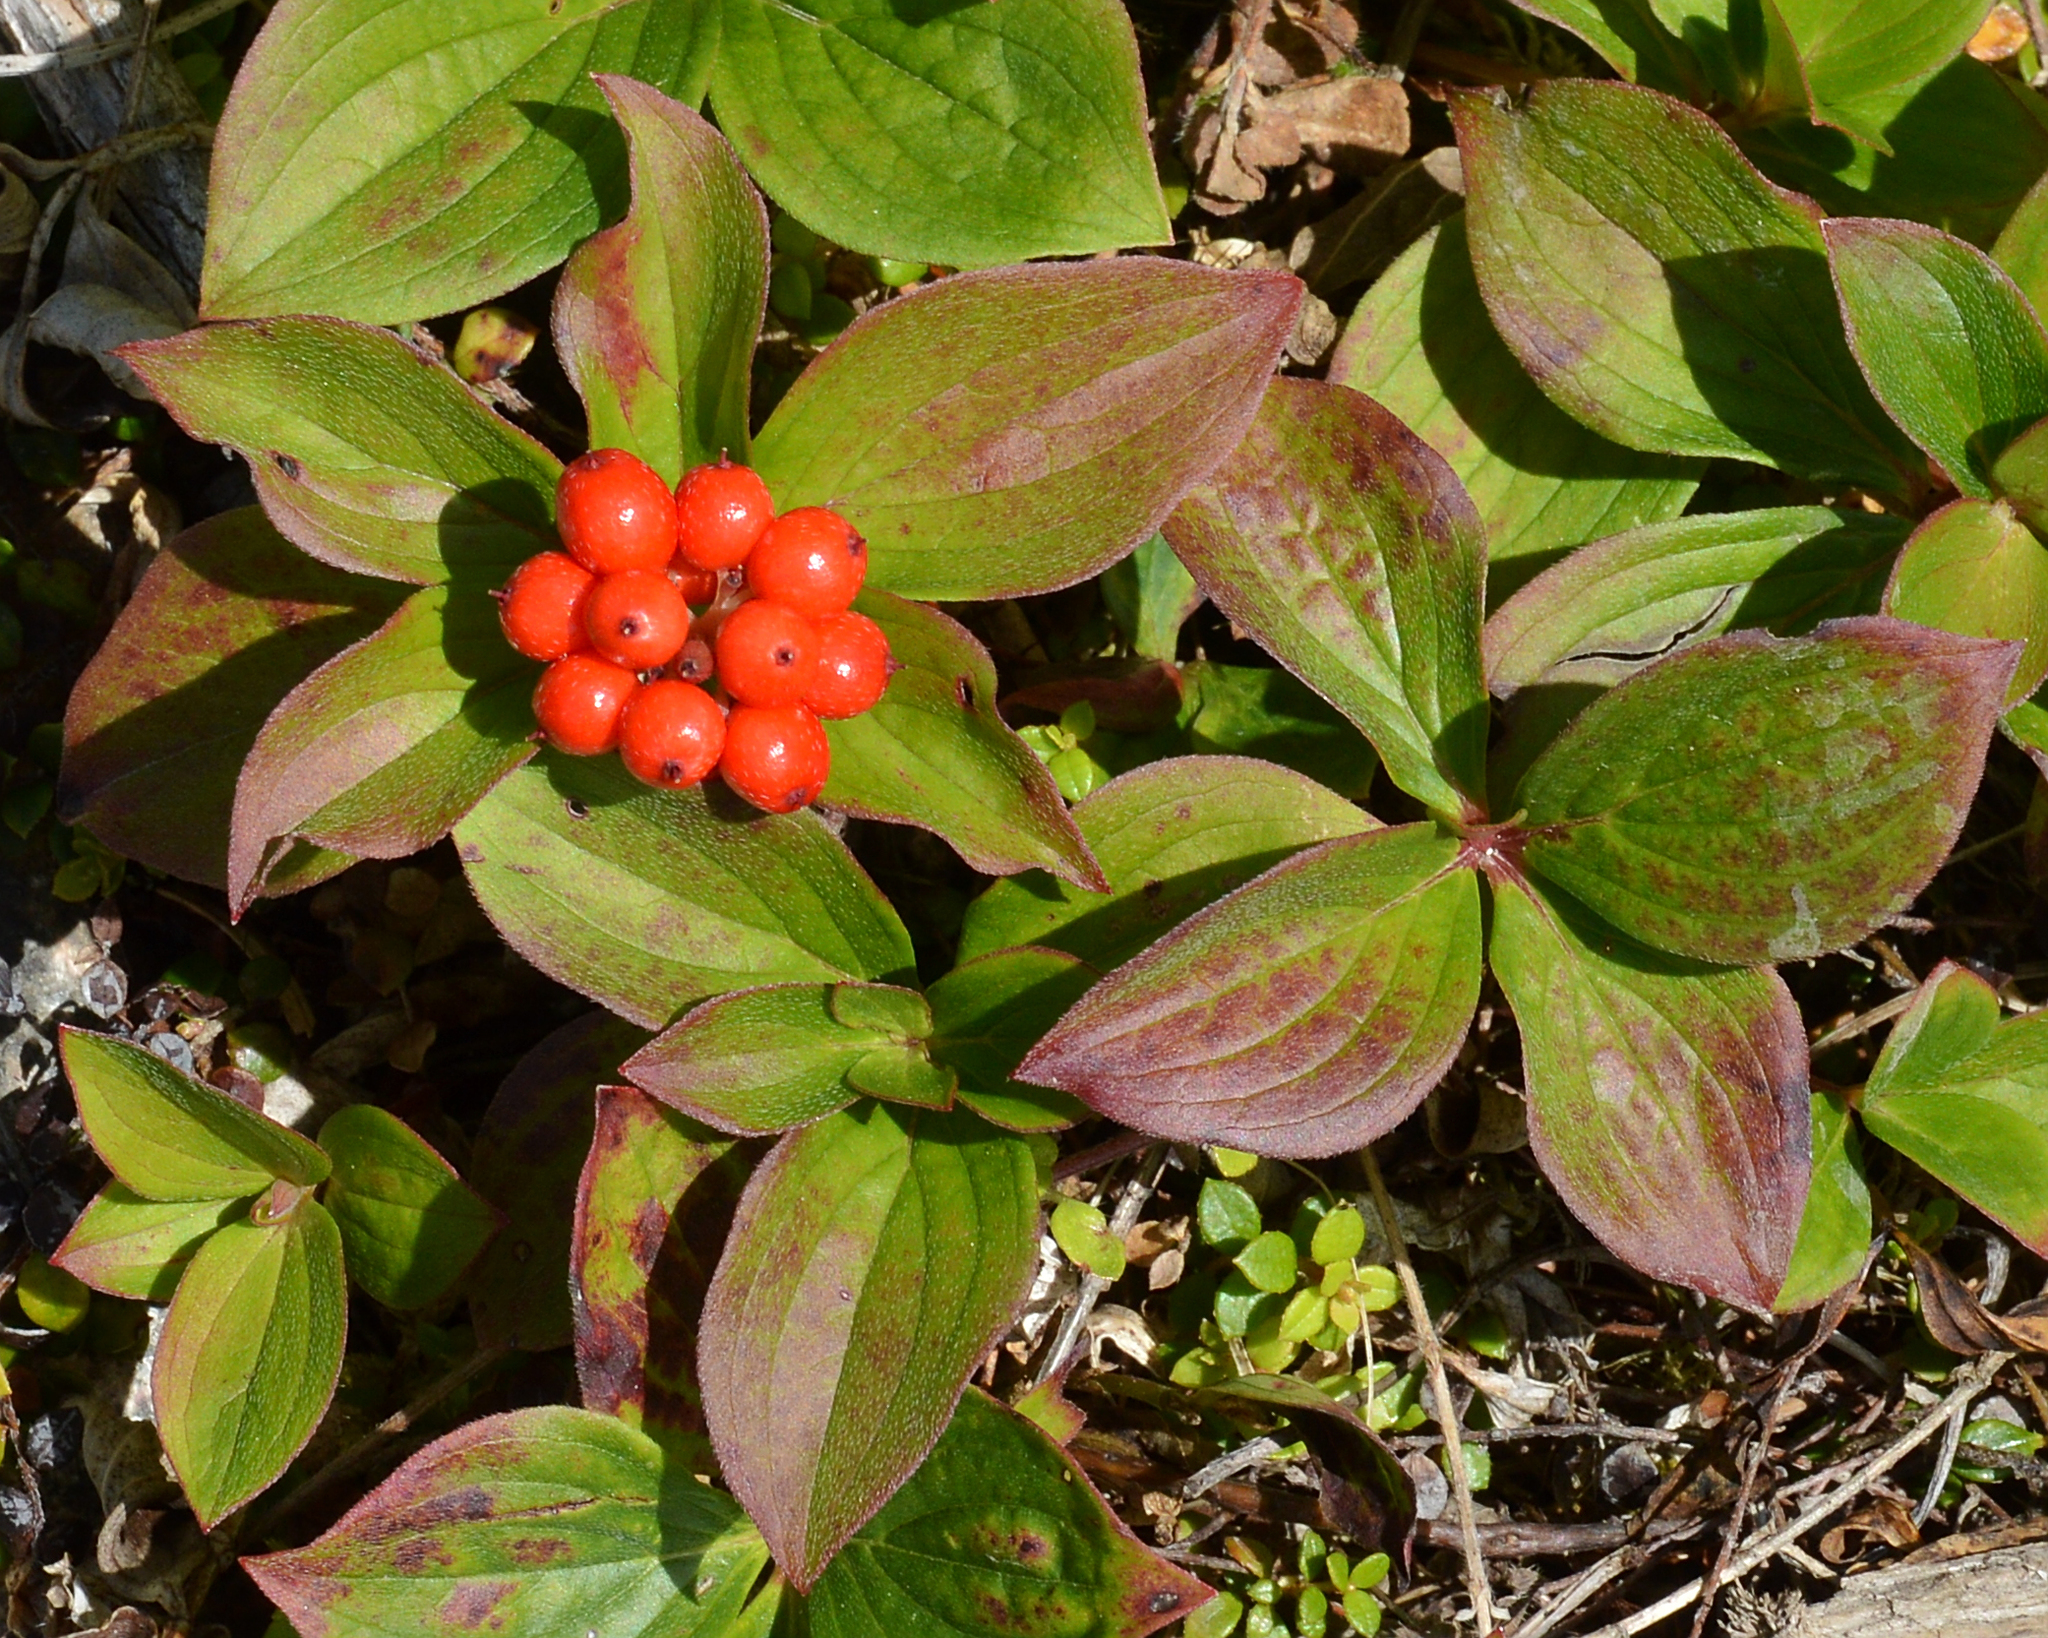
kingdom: Plantae
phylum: Tracheophyta
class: Magnoliopsida
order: Cornales
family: Cornaceae
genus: Cornus
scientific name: Cornus canadensis
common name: Creeping dogwood
